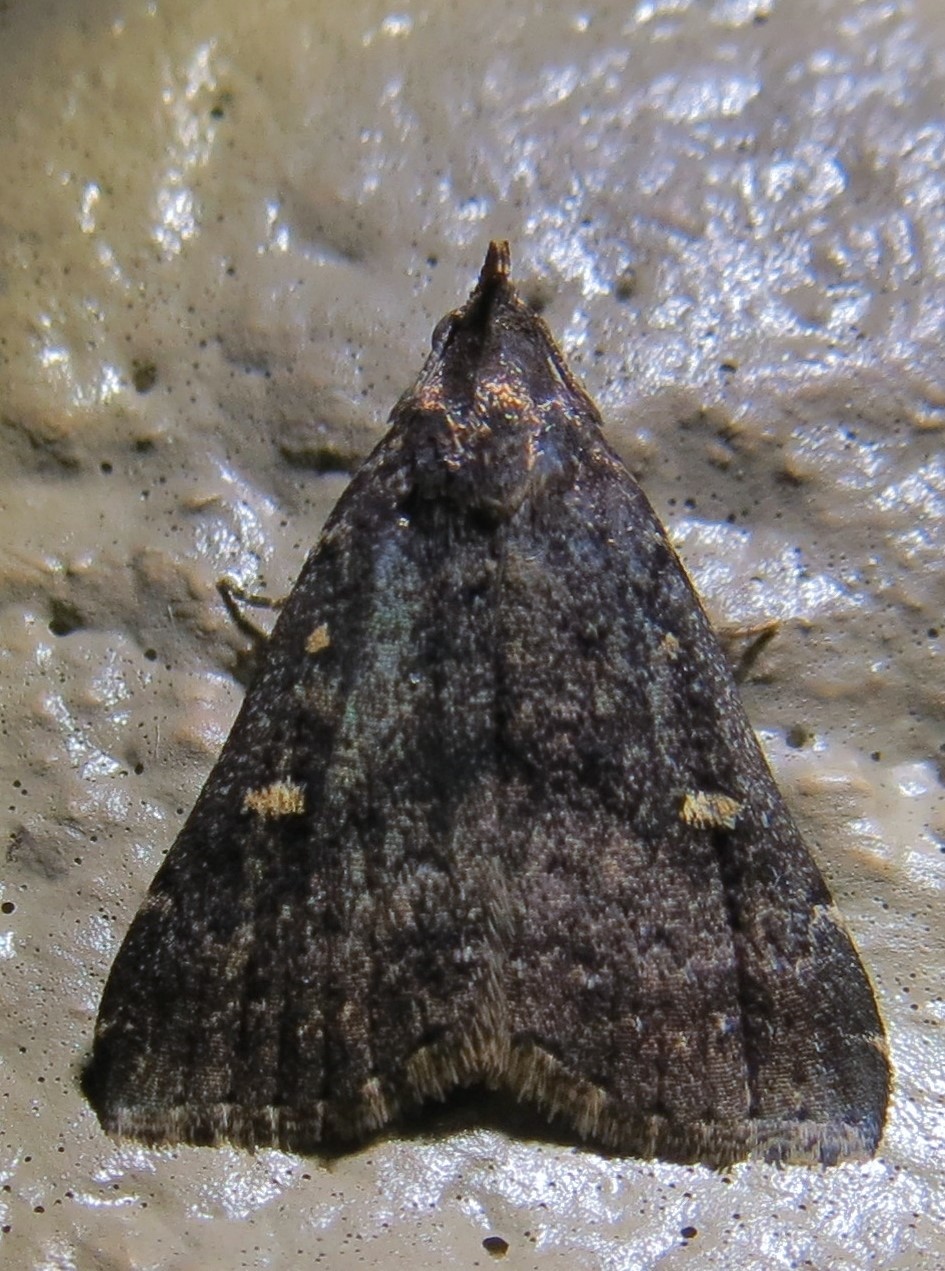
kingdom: Animalia
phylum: Arthropoda
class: Insecta
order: Lepidoptera
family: Erebidae
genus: Tetanolita
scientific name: Tetanolita mynesalis
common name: Smoky tetanolita moth
